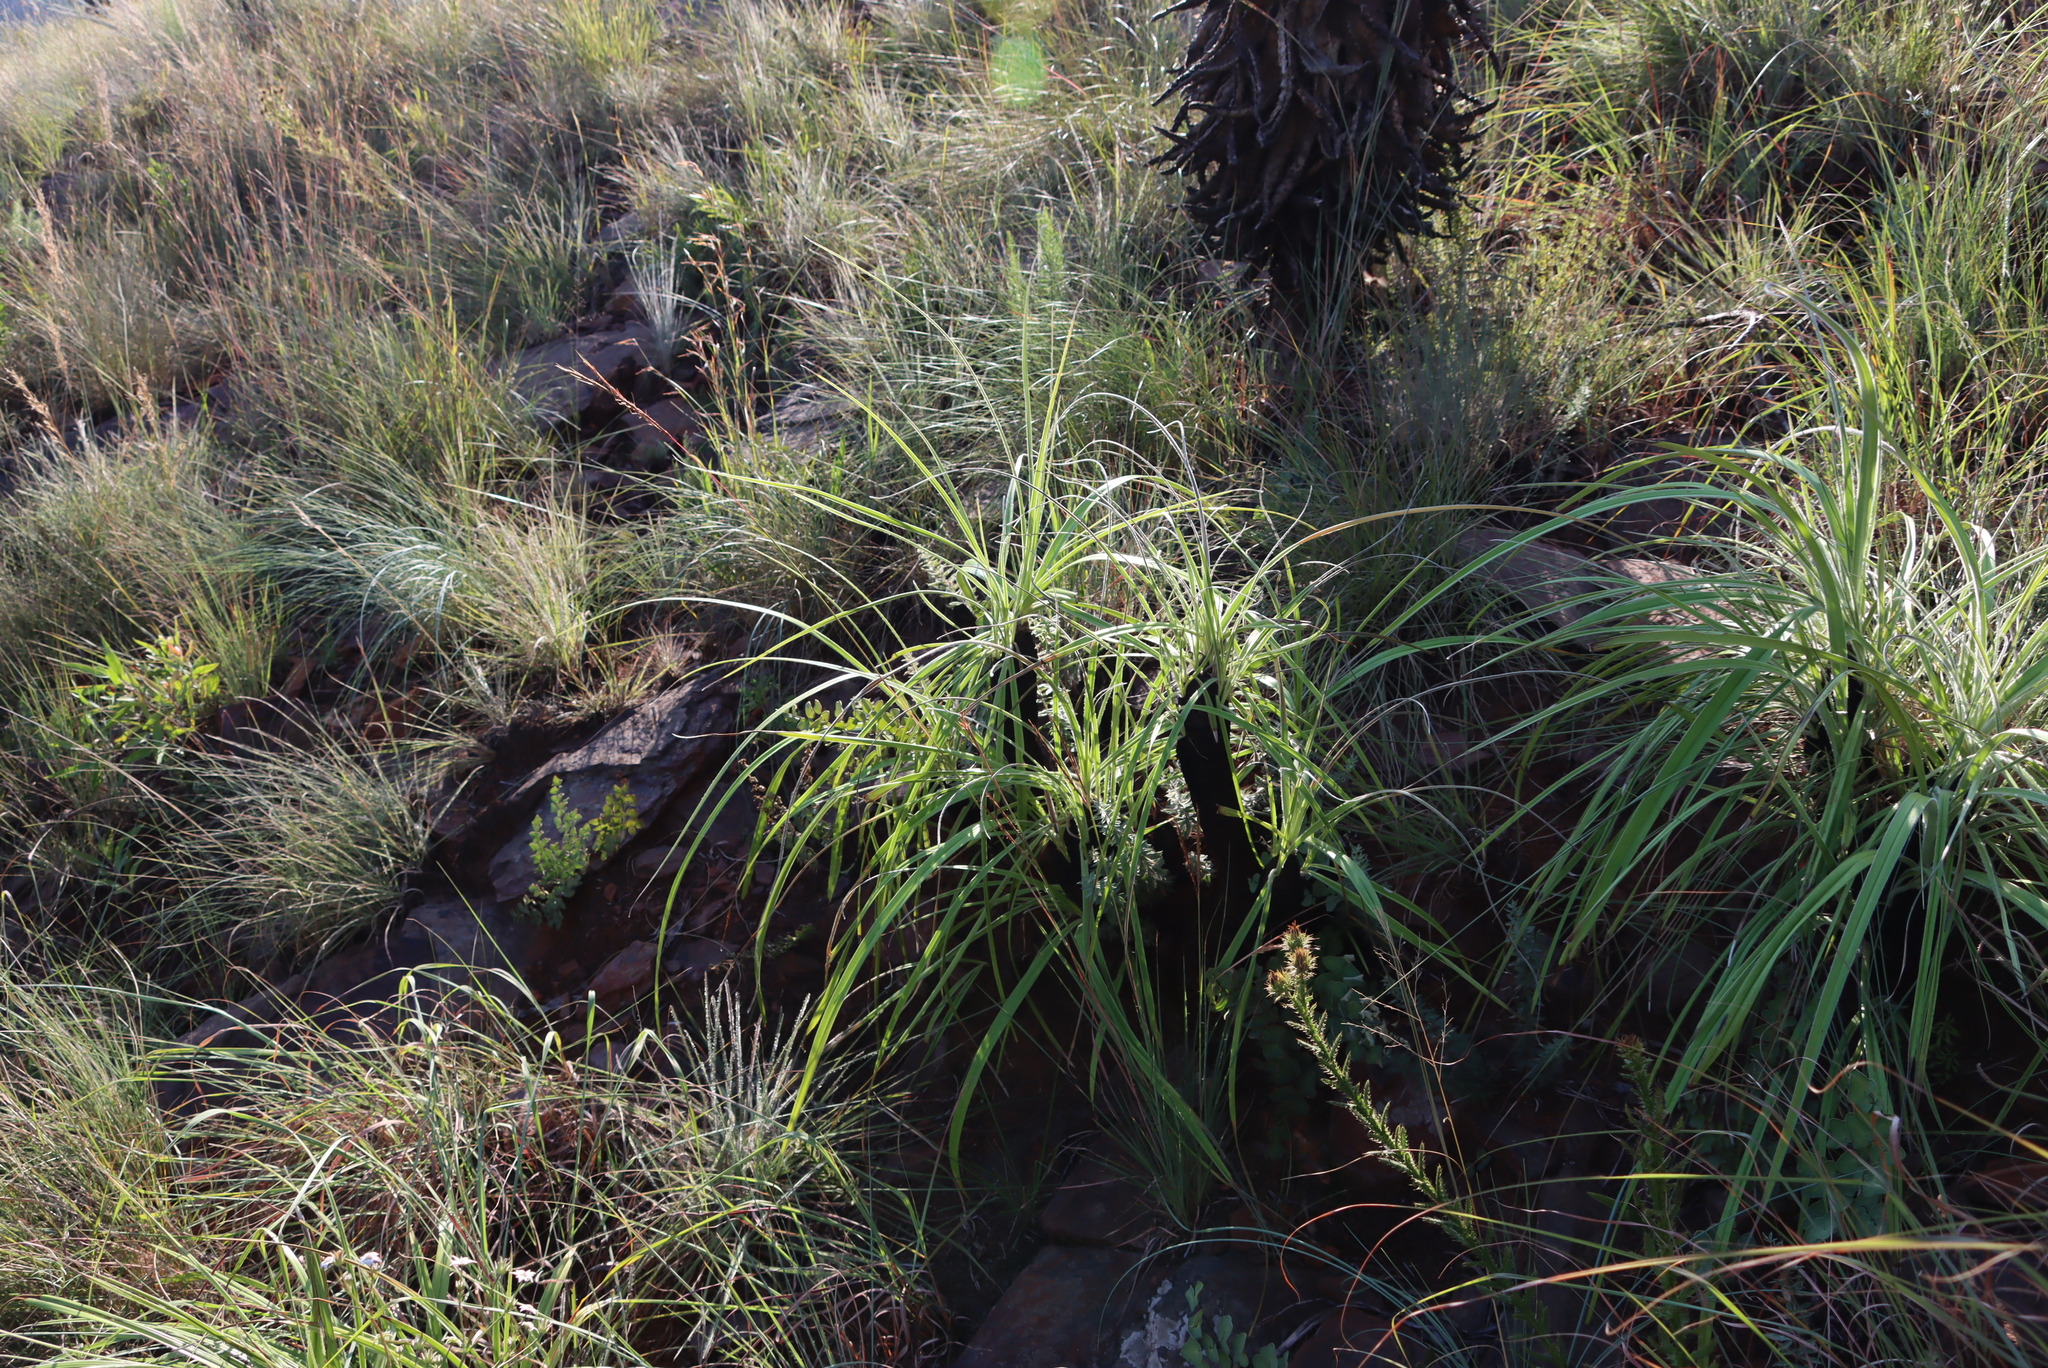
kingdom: Plantae
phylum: Tracheophyta
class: Liliopsida
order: Pandanales
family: Velloziaceae
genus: Xerophyta
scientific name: Xerophyta retinervis
